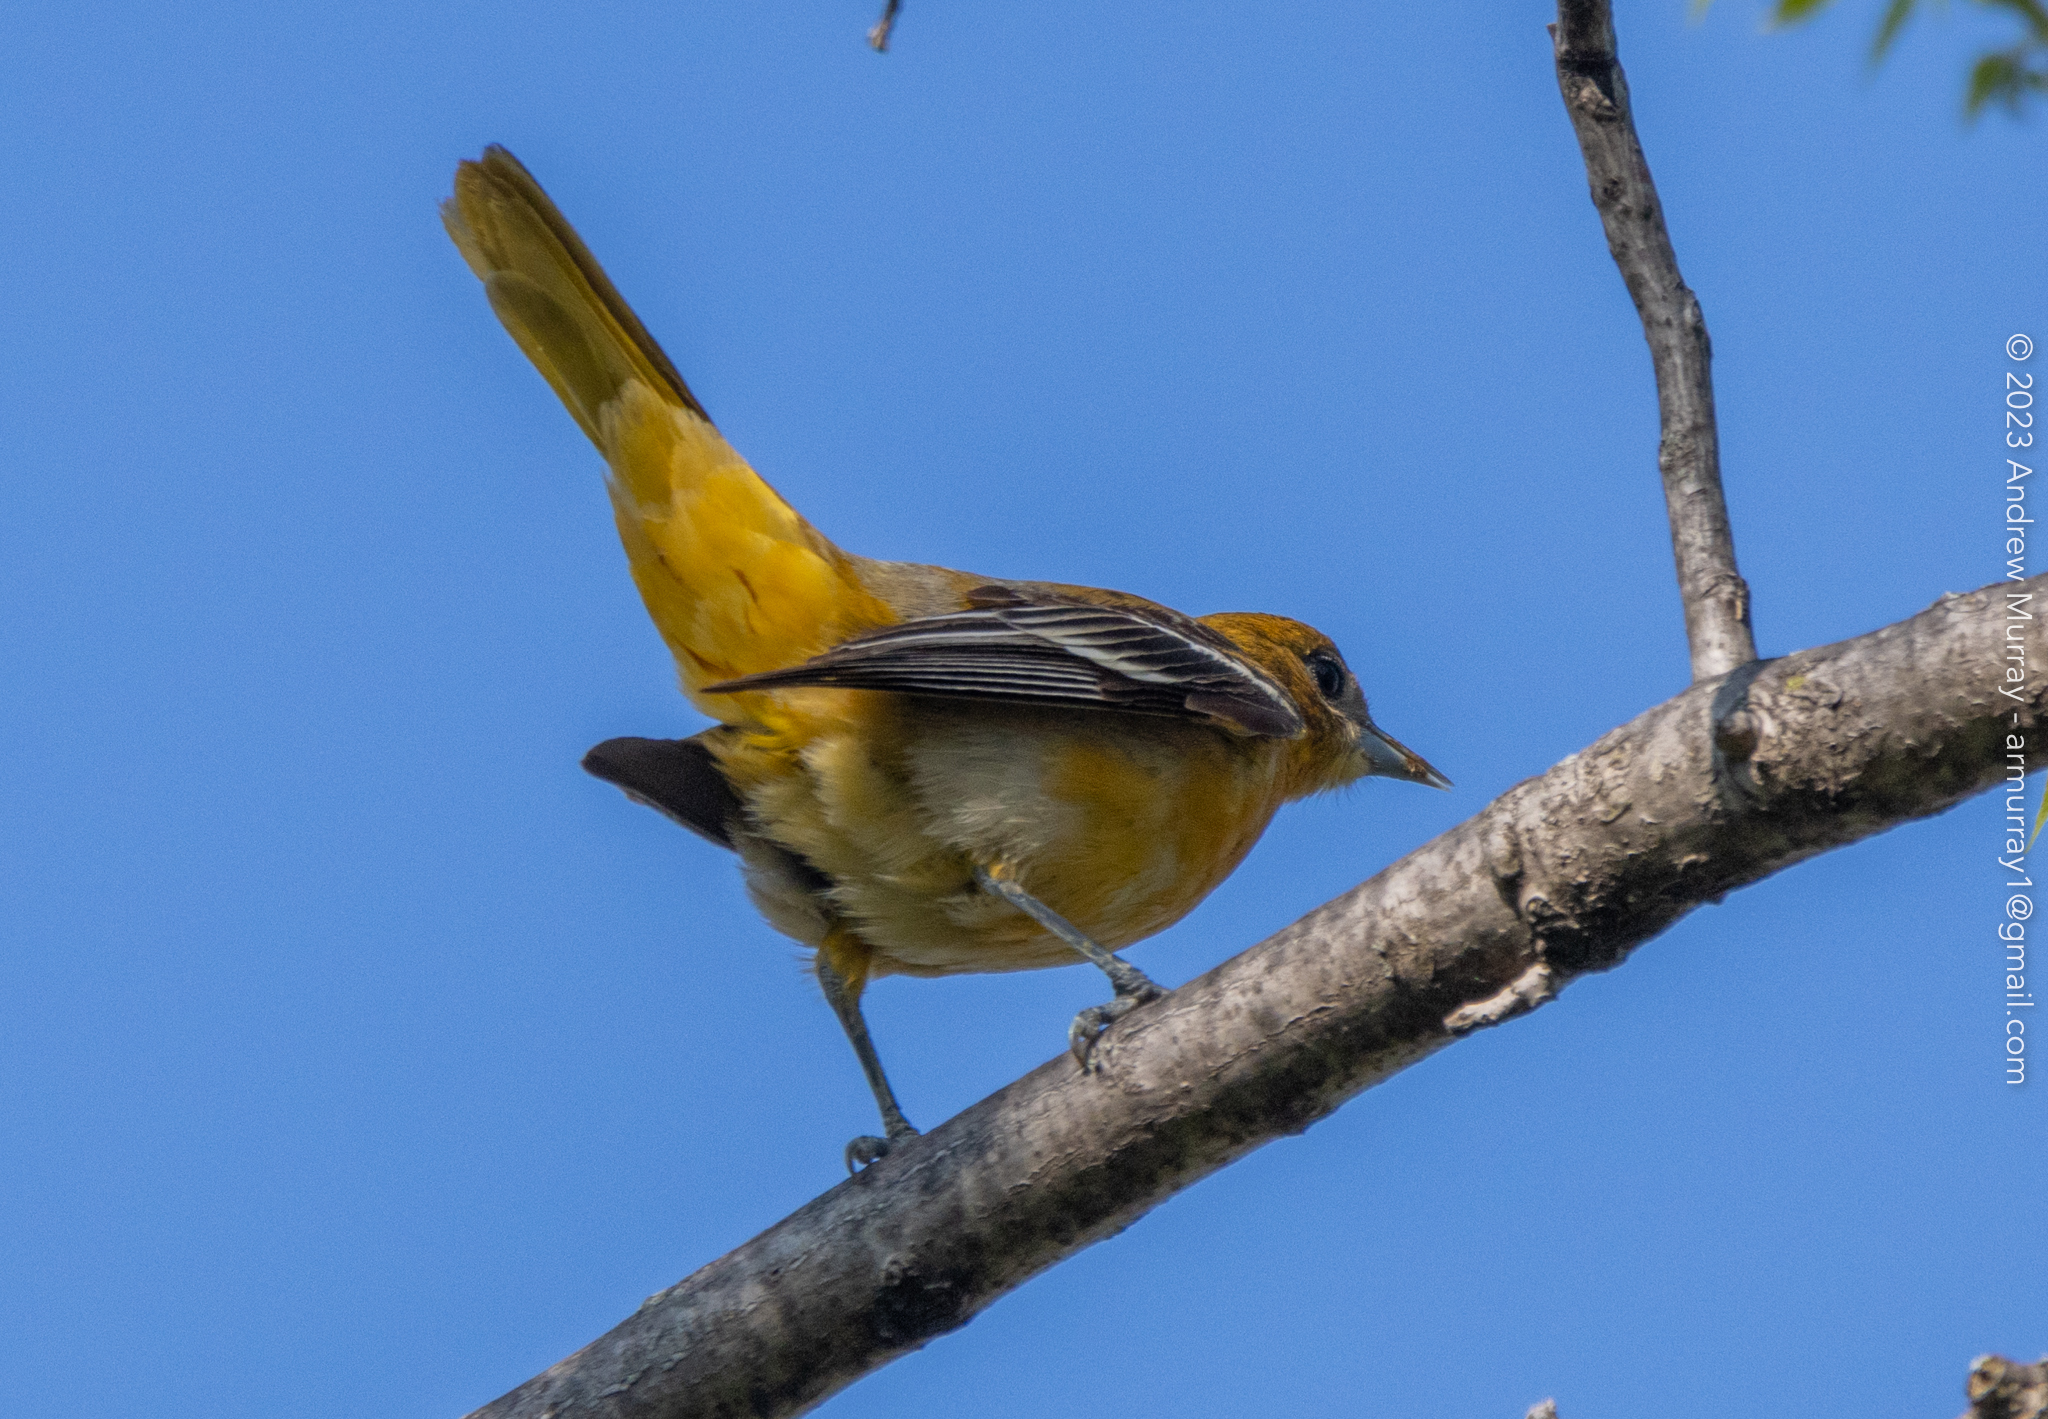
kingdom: Animalia
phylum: Chordata
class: Aves
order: Passeriformes
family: Icteridae
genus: Icterus
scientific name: Icterus galbula
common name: Baltimore oriole
